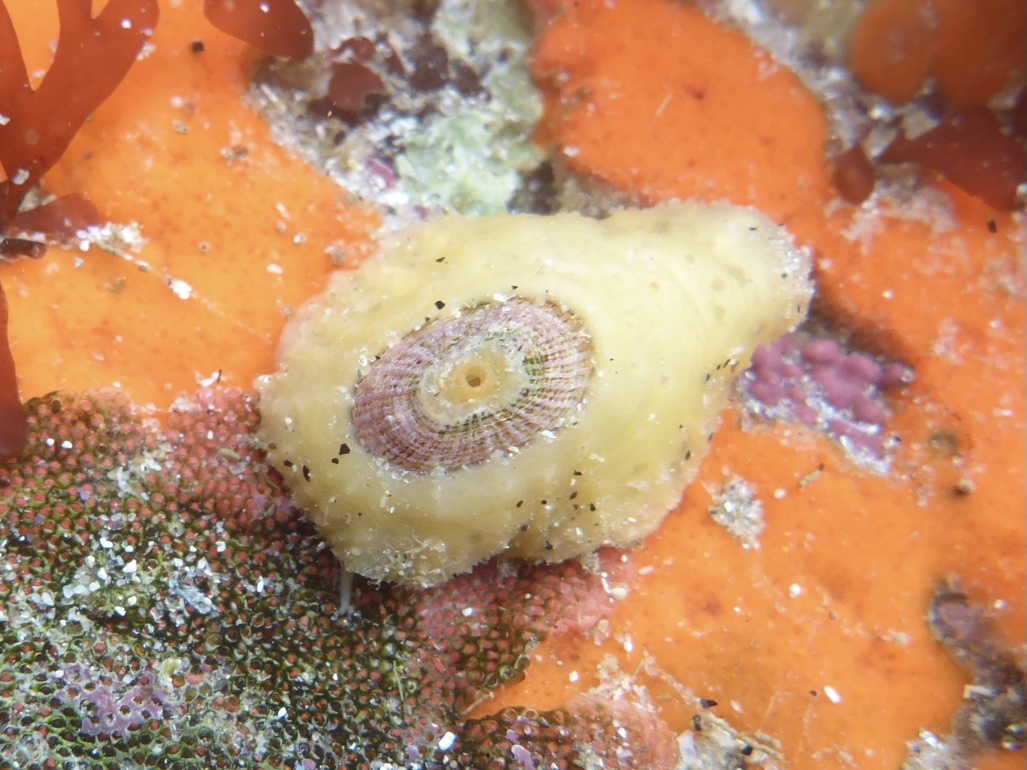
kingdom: Animalia
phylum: Mollusca
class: Gastropoda
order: Lepetellida
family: Fissurellidae
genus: Fissurellidea
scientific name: Fissurellidea bimaculata
